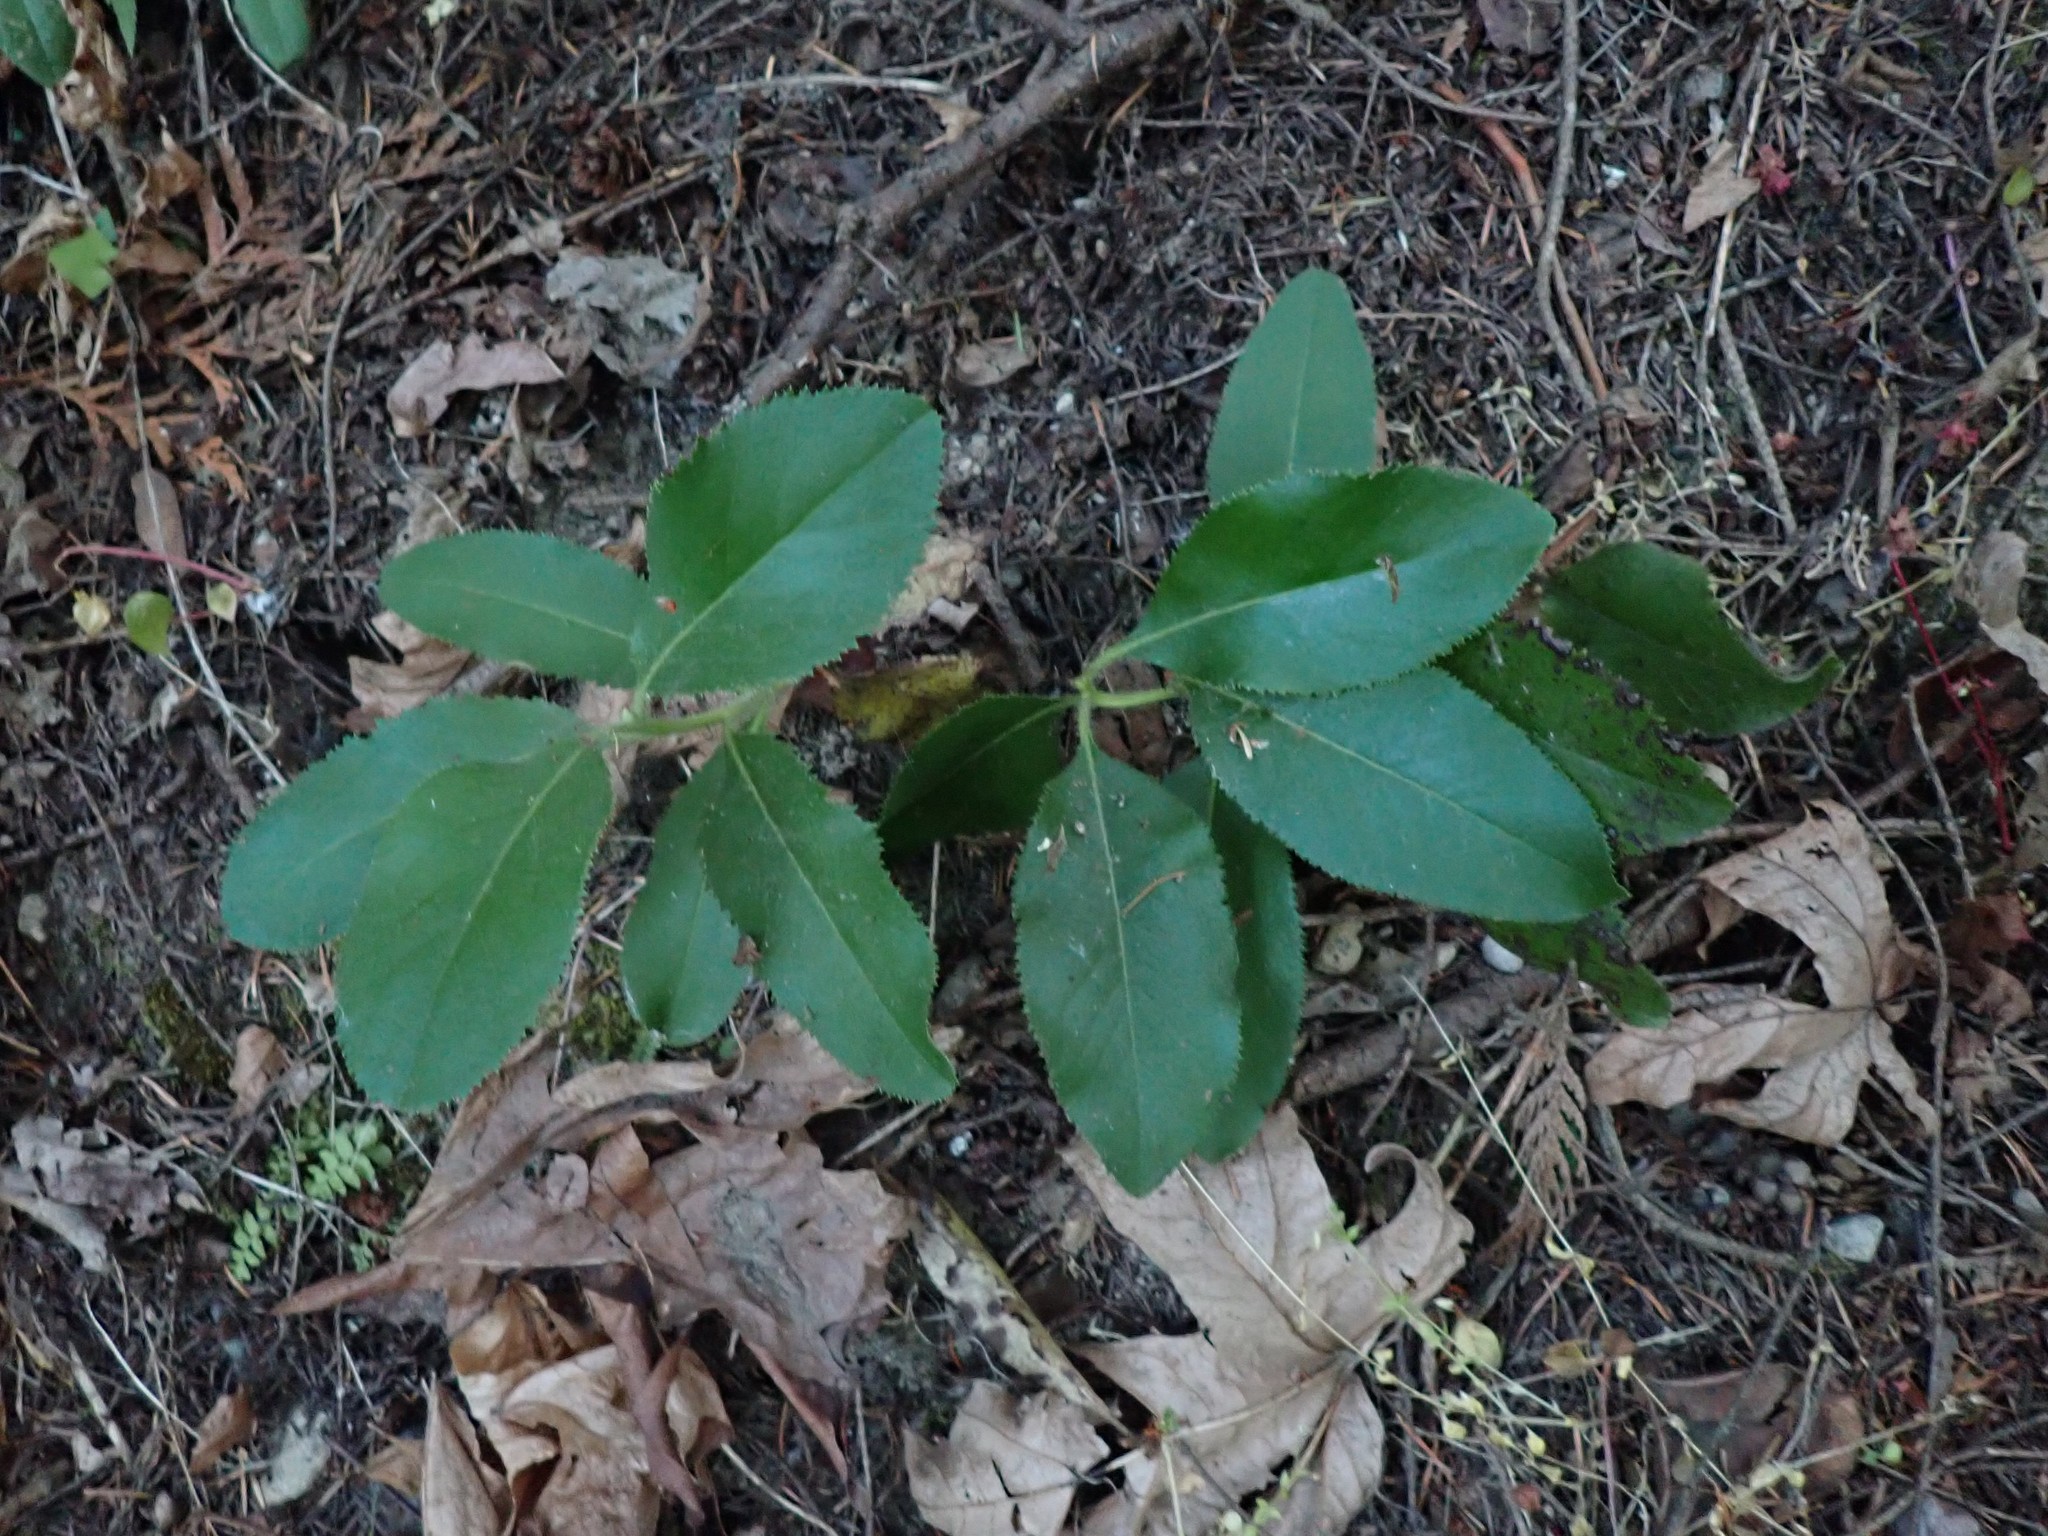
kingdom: Plantae
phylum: Tracheophyta
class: Magnoliopsida
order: Ericales
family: Ericaceae
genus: Arbutus
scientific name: Arbutus menziesii
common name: Pacific madrone
